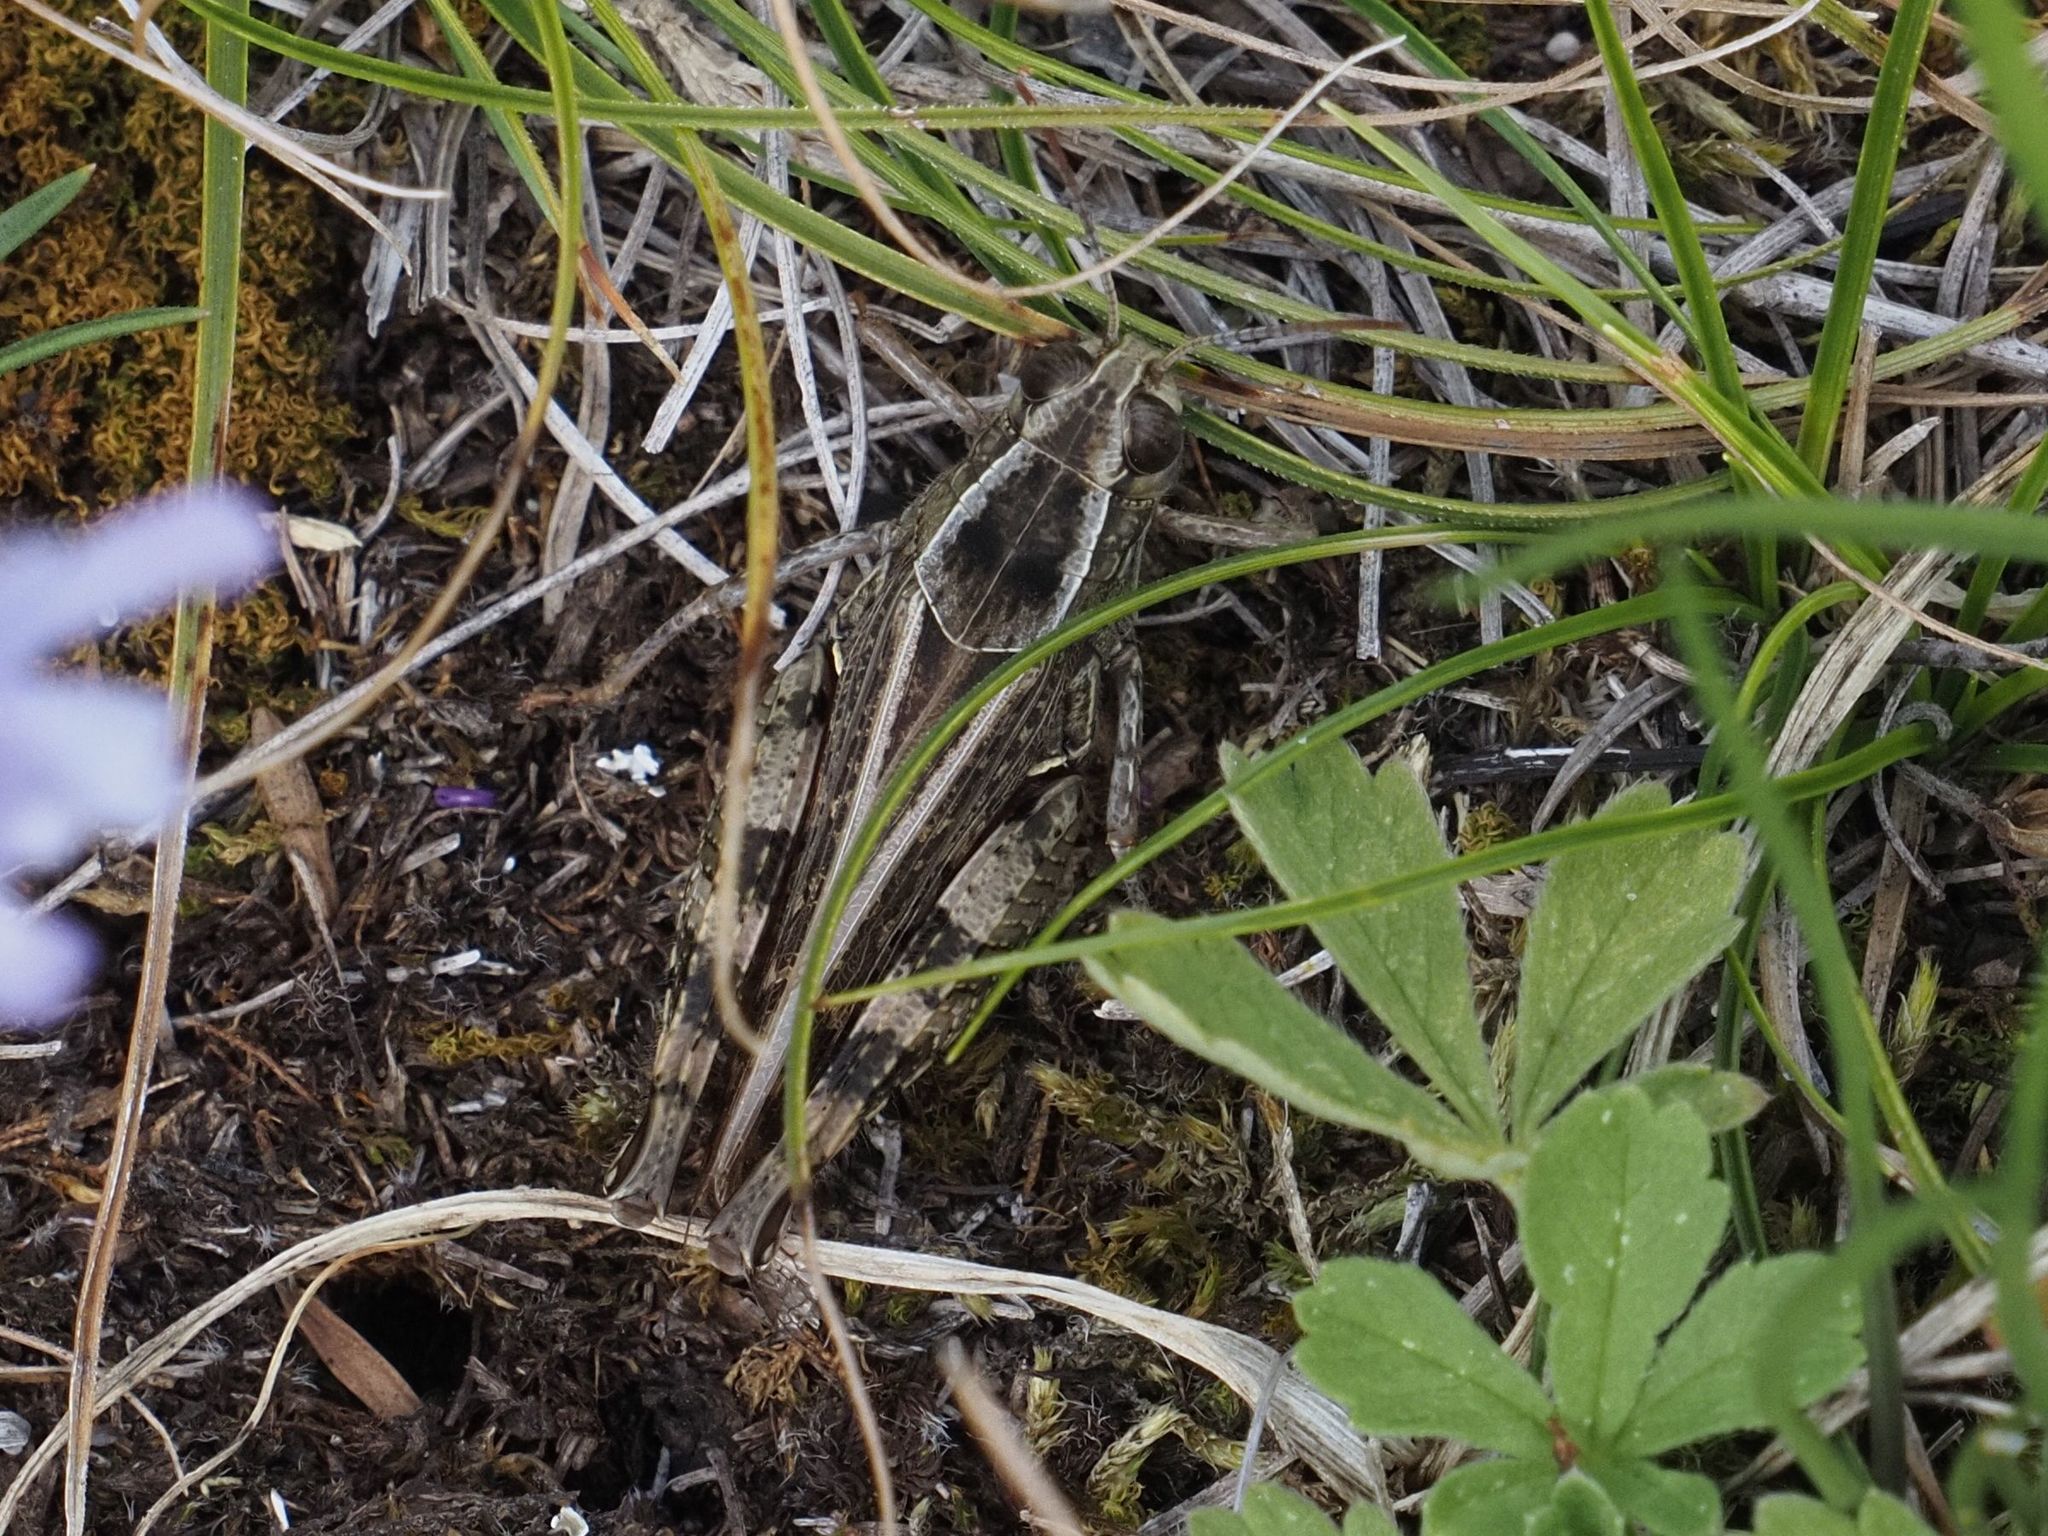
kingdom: Animalia
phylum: Arthropoda
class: Insecta
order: Orthoptera
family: Acrididae
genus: Calliptamus
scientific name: Calliptamus italicus
